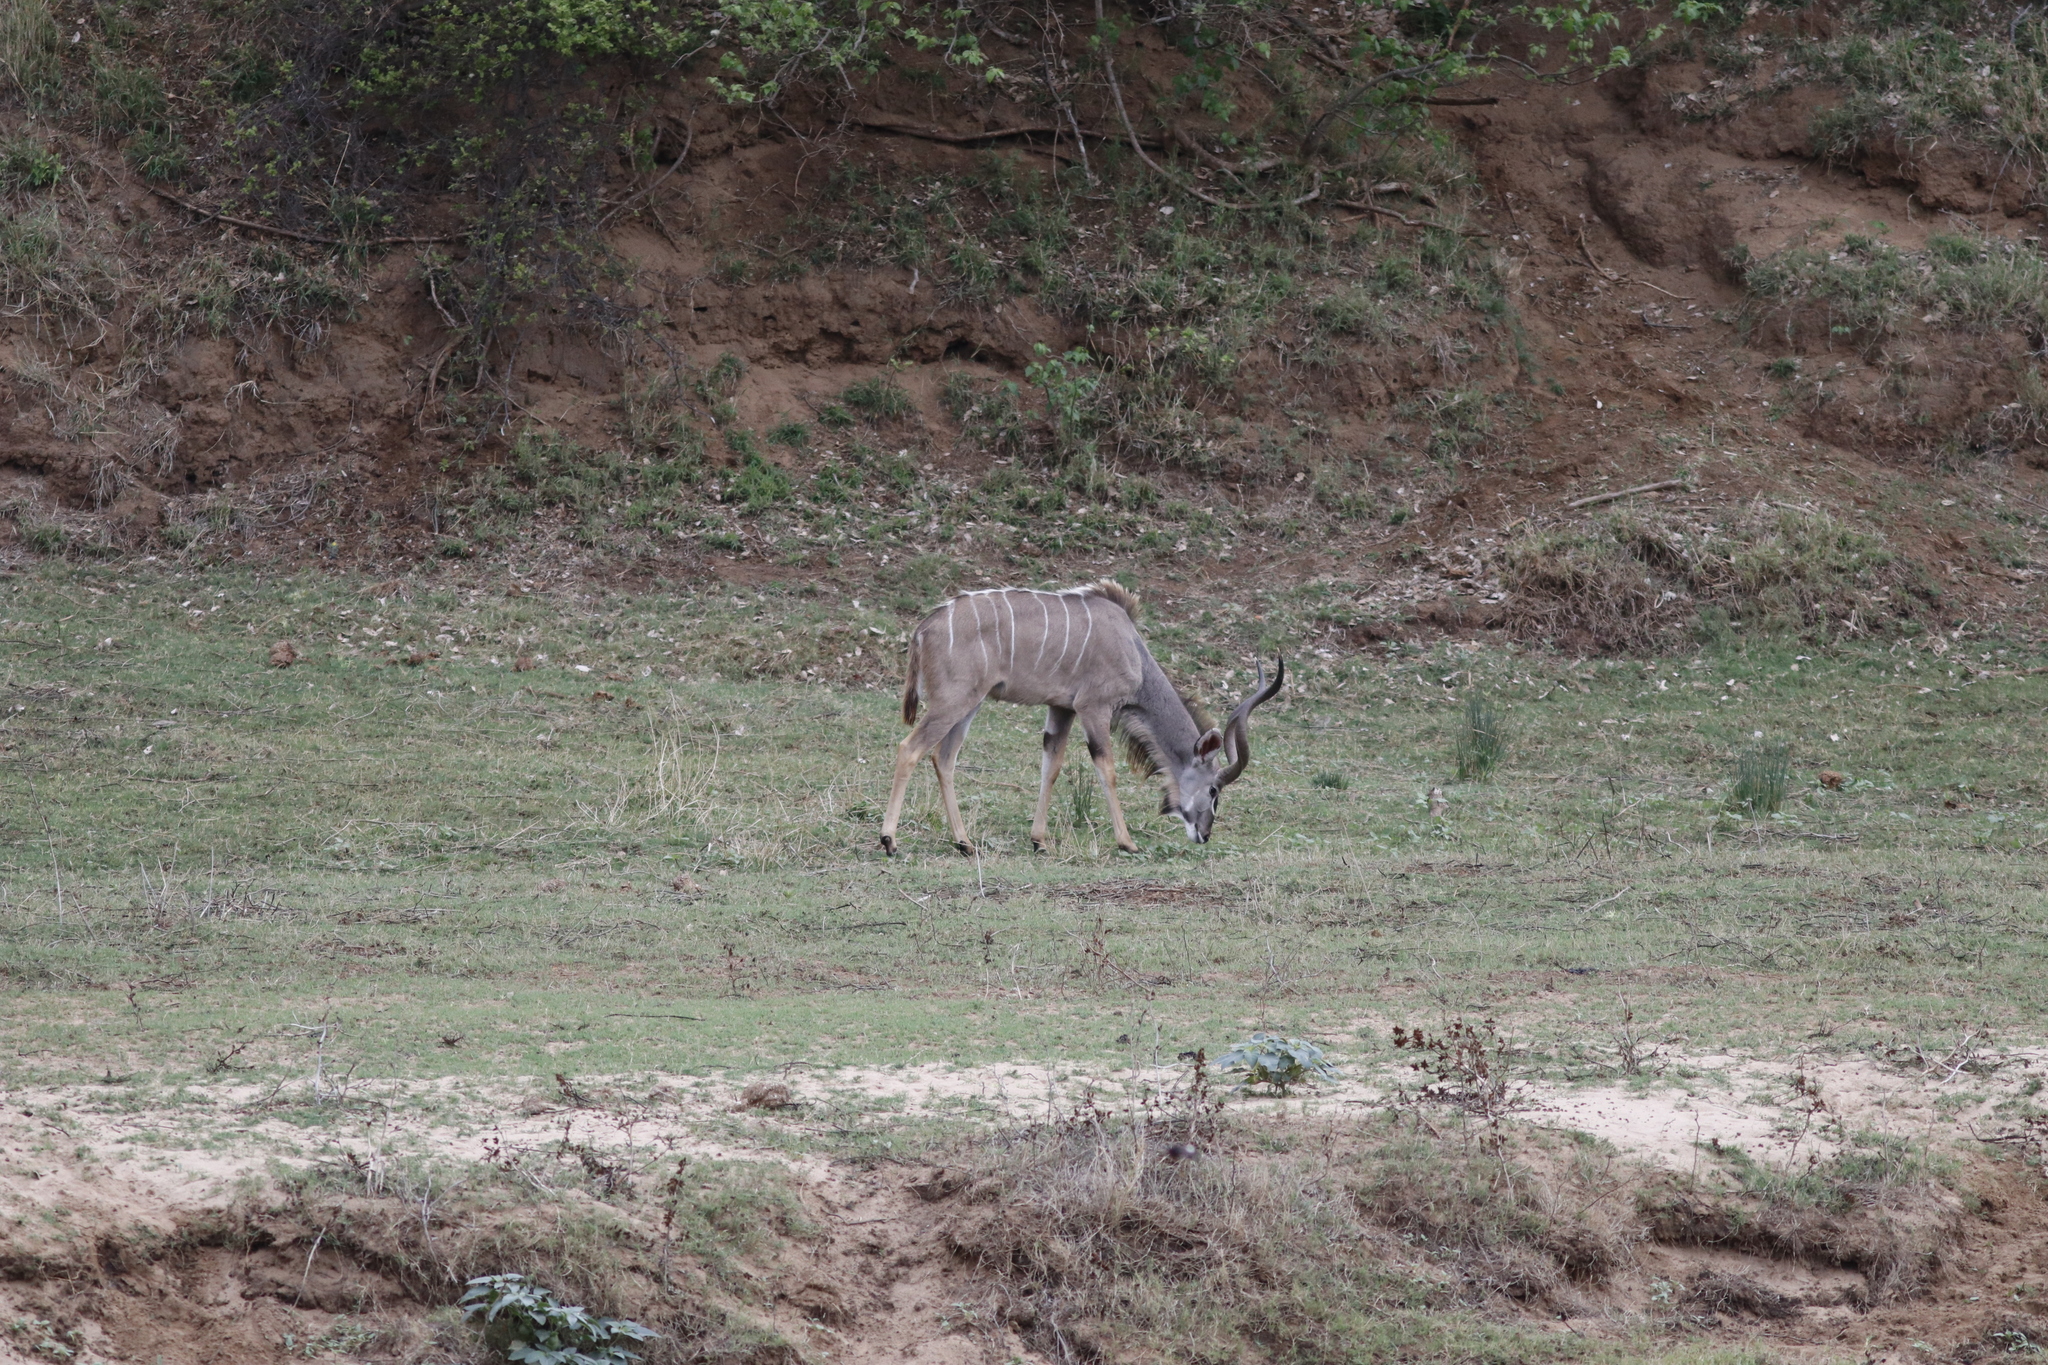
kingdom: Animalia
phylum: Chordata
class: Mammalia
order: Artiodactyla
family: Bovidae
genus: Tragelaphus
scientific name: Tragelaphus strepsiceros
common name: Greater kudu
